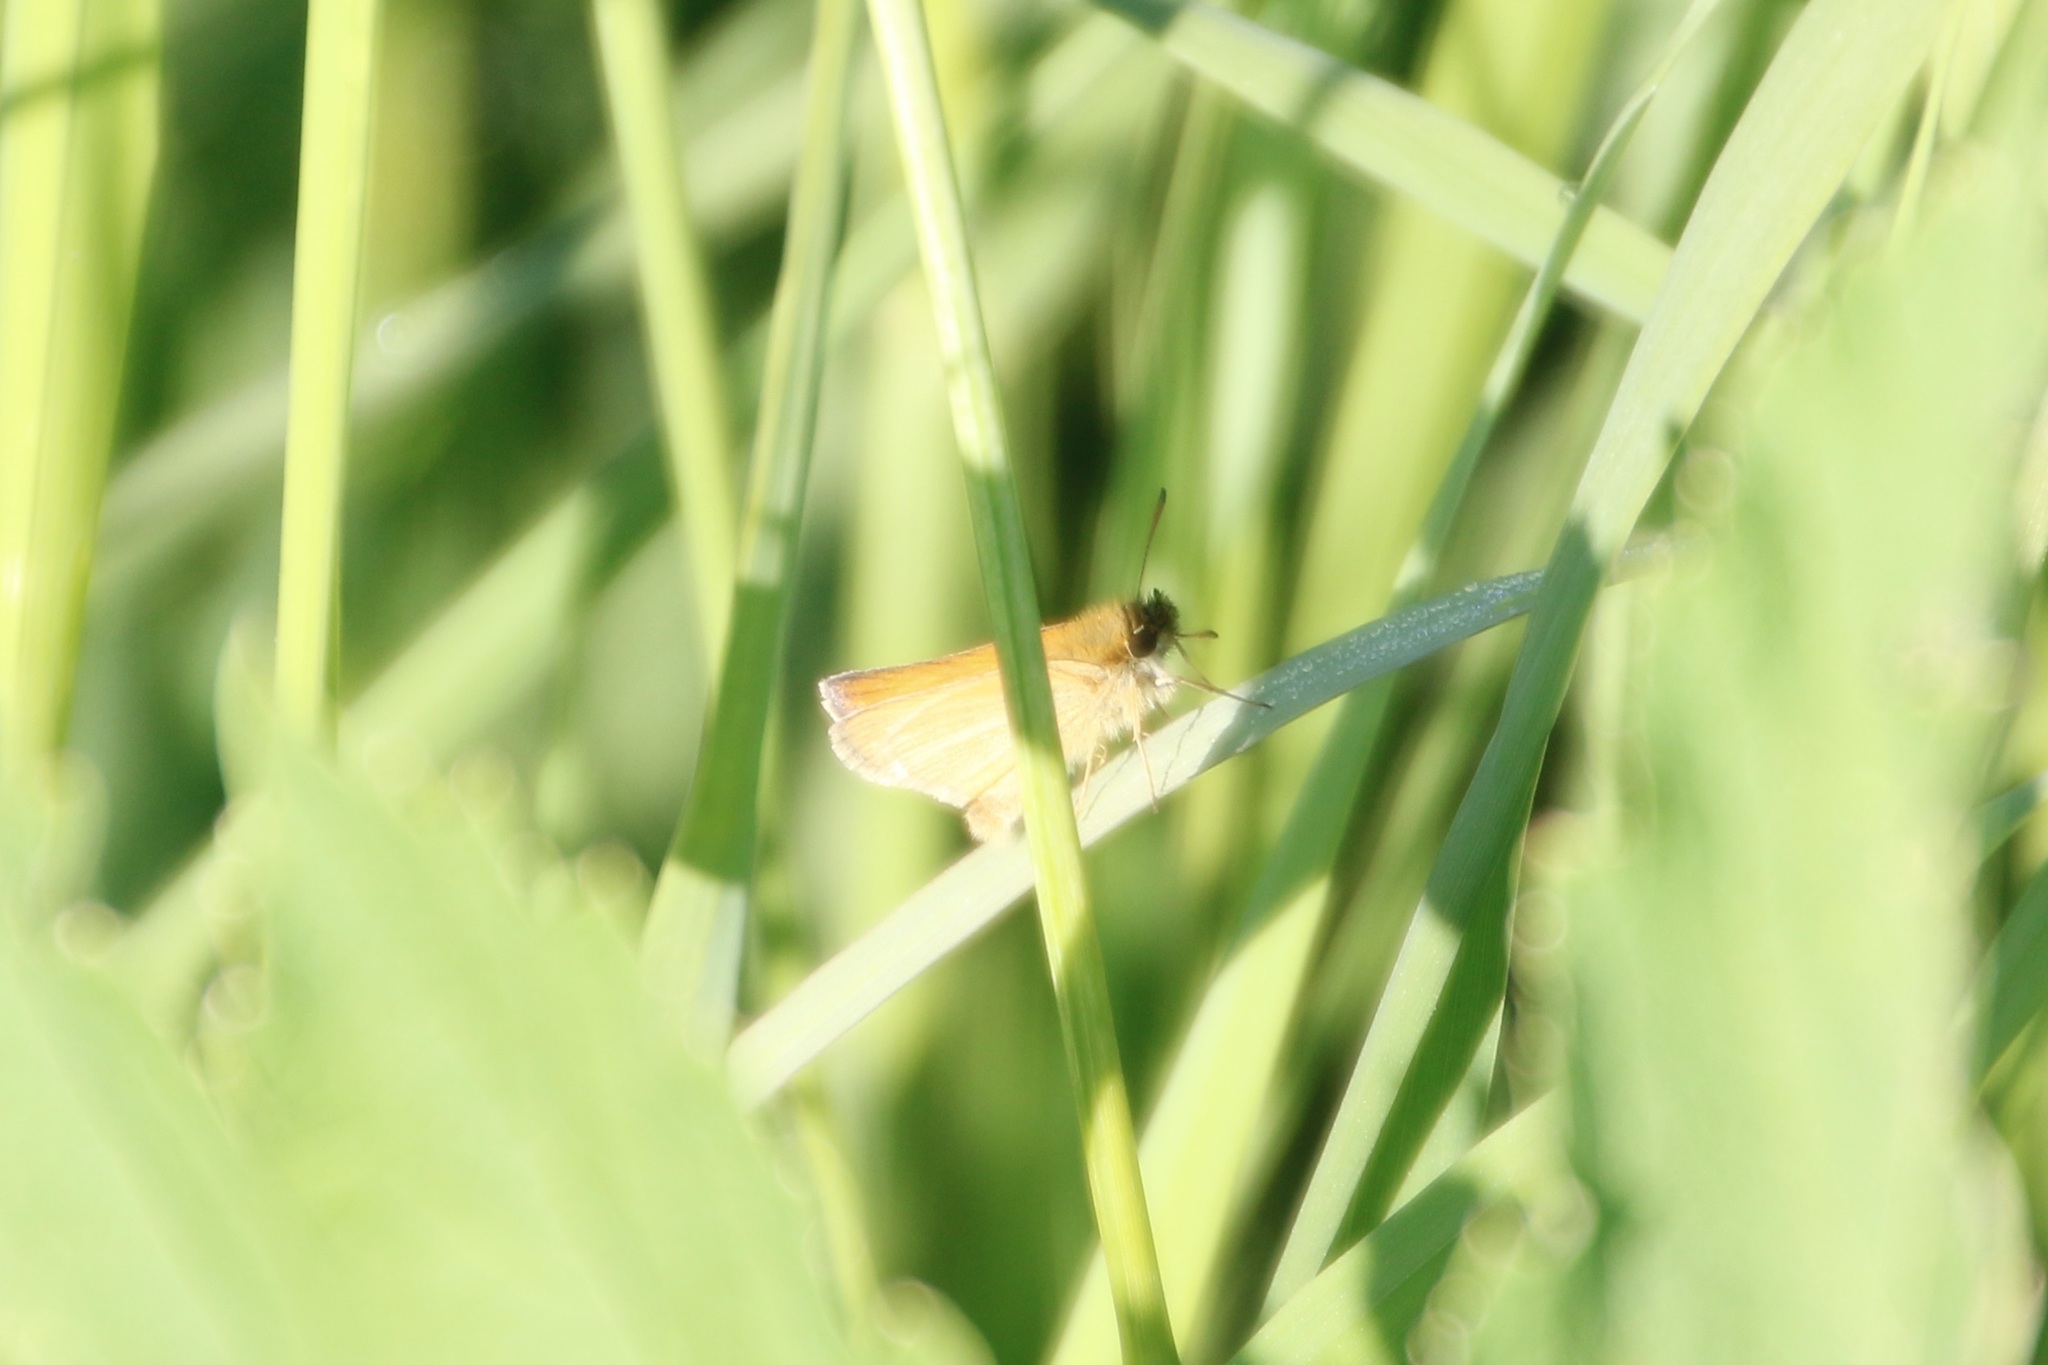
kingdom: Animalia
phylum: Arthropoda
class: Insecta
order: Lepidoptera
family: Hesperiidae
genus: Thymelicus
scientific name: Thymelicus lineola
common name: Essex skipper
